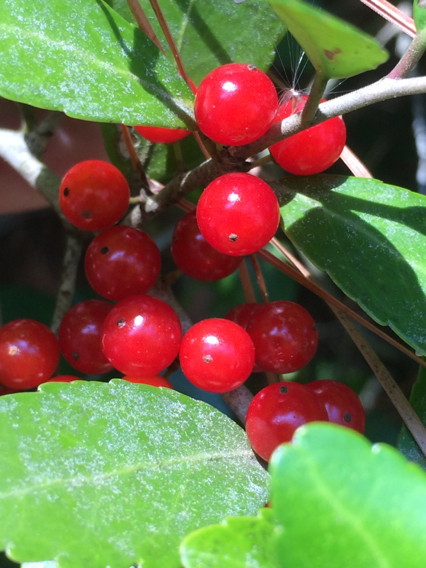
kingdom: Plantae
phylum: Tracheophyta
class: Magnoliopsida
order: Aquifoliales
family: Aquifoliaceae
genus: Ilex
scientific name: Ilex vomitoria
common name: Yaupon holly
